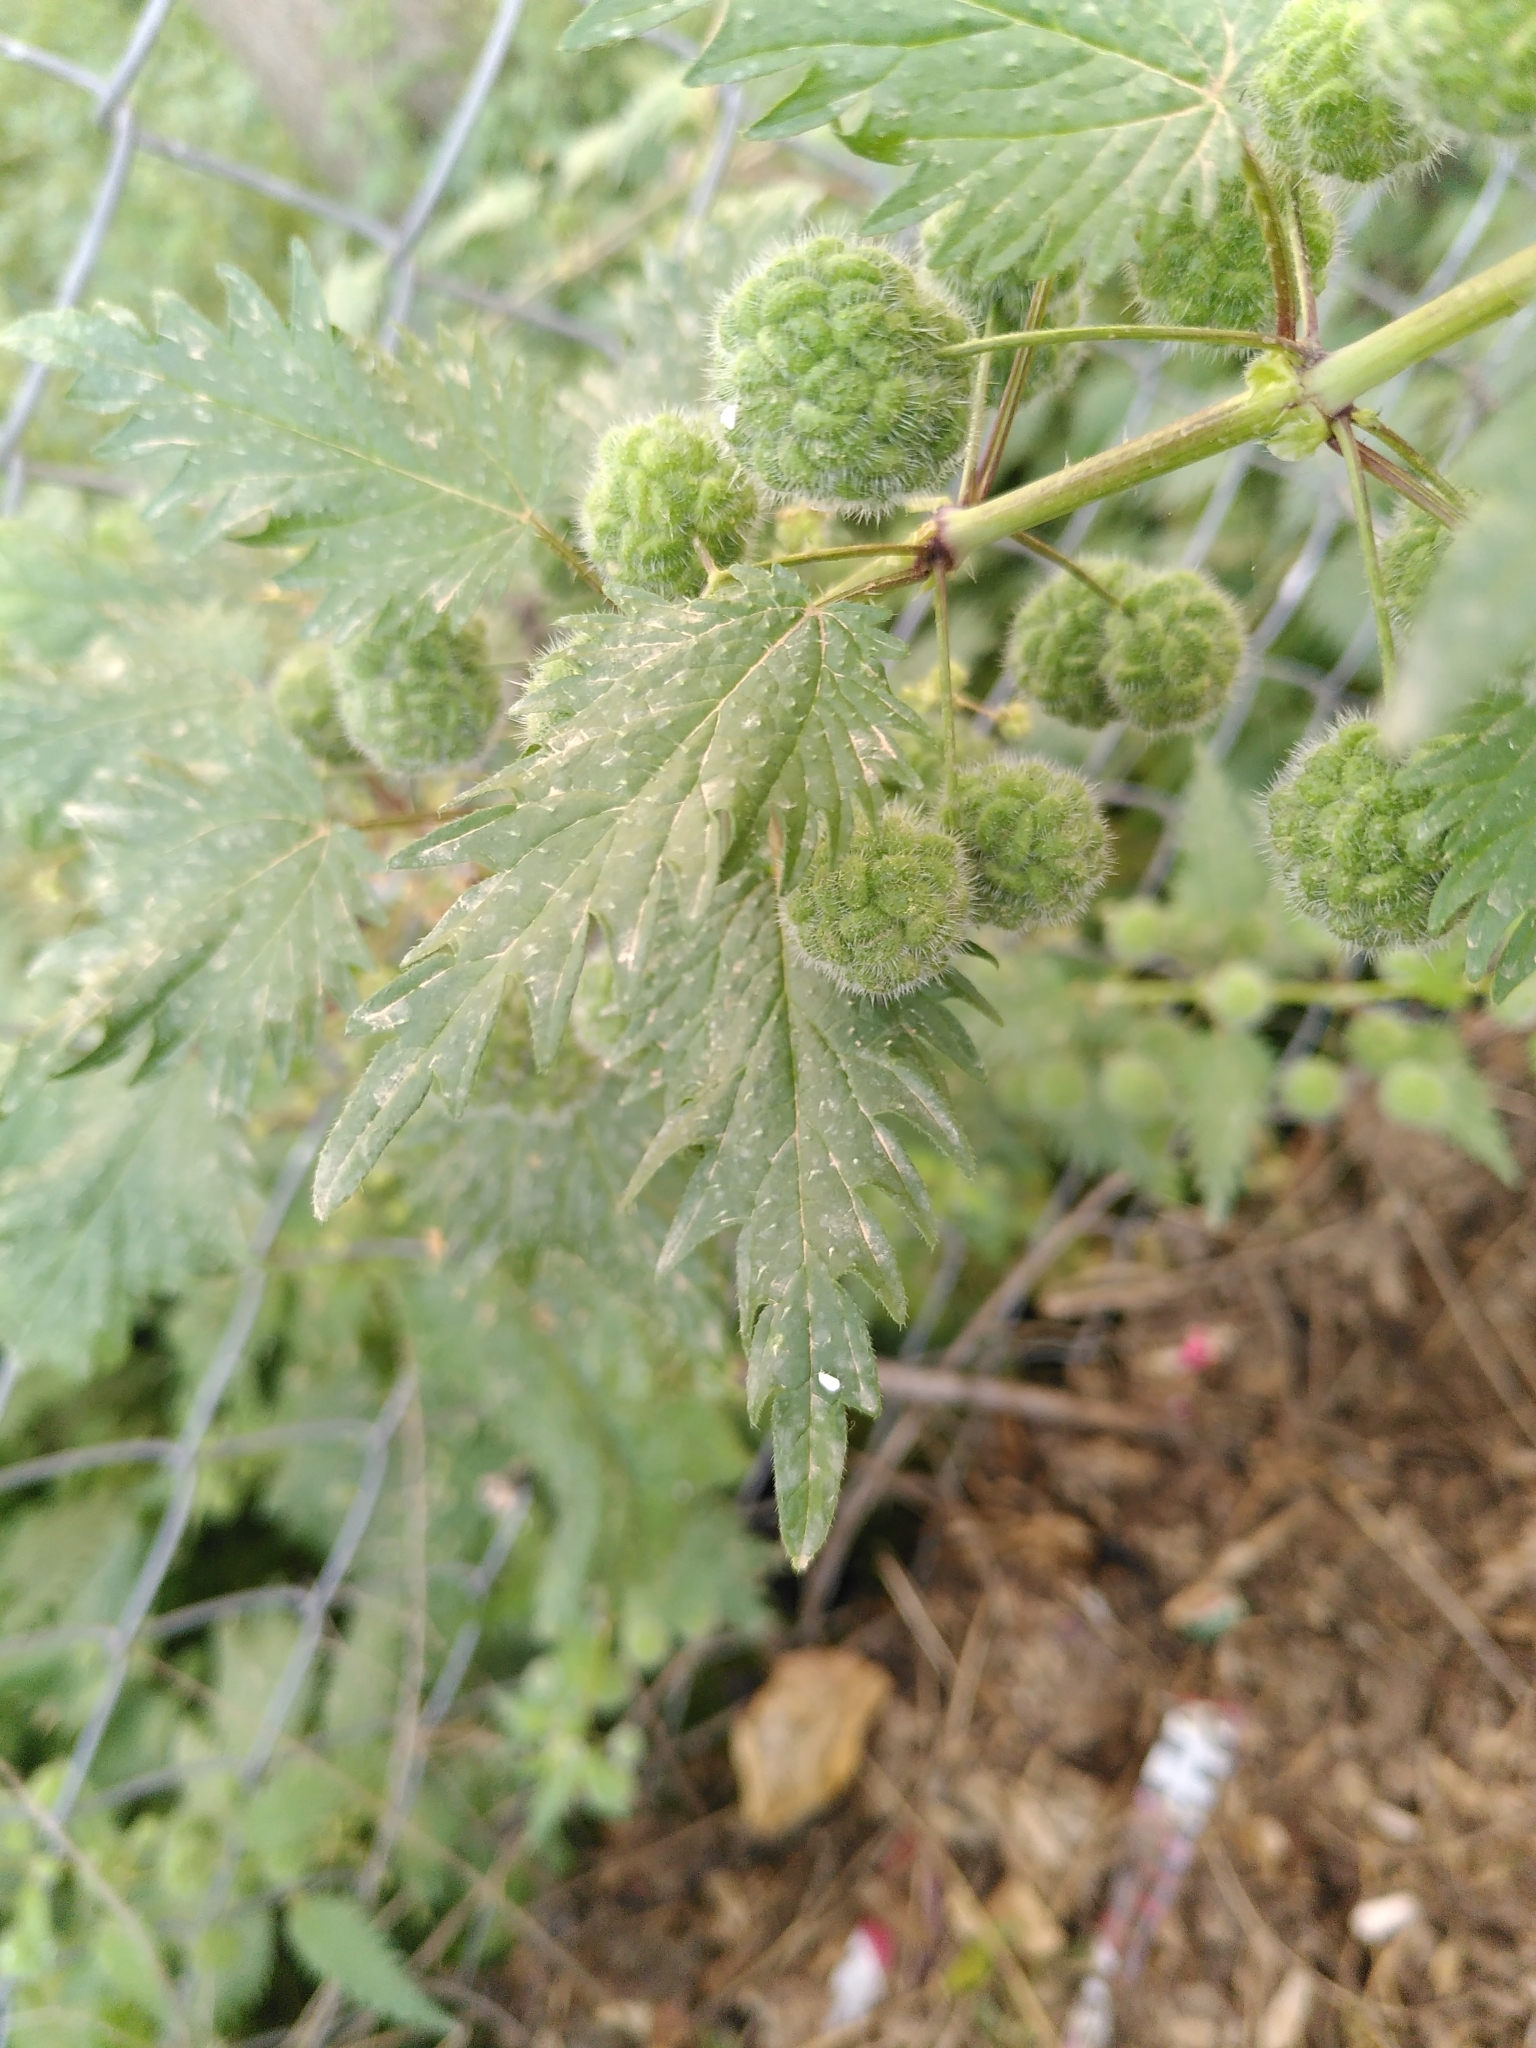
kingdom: Plantae
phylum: Tracheophyta
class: Magnoliopsida
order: Rosales
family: Urticaceae
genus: Urtica
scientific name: Urtica pilulifera
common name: Roman nettle
